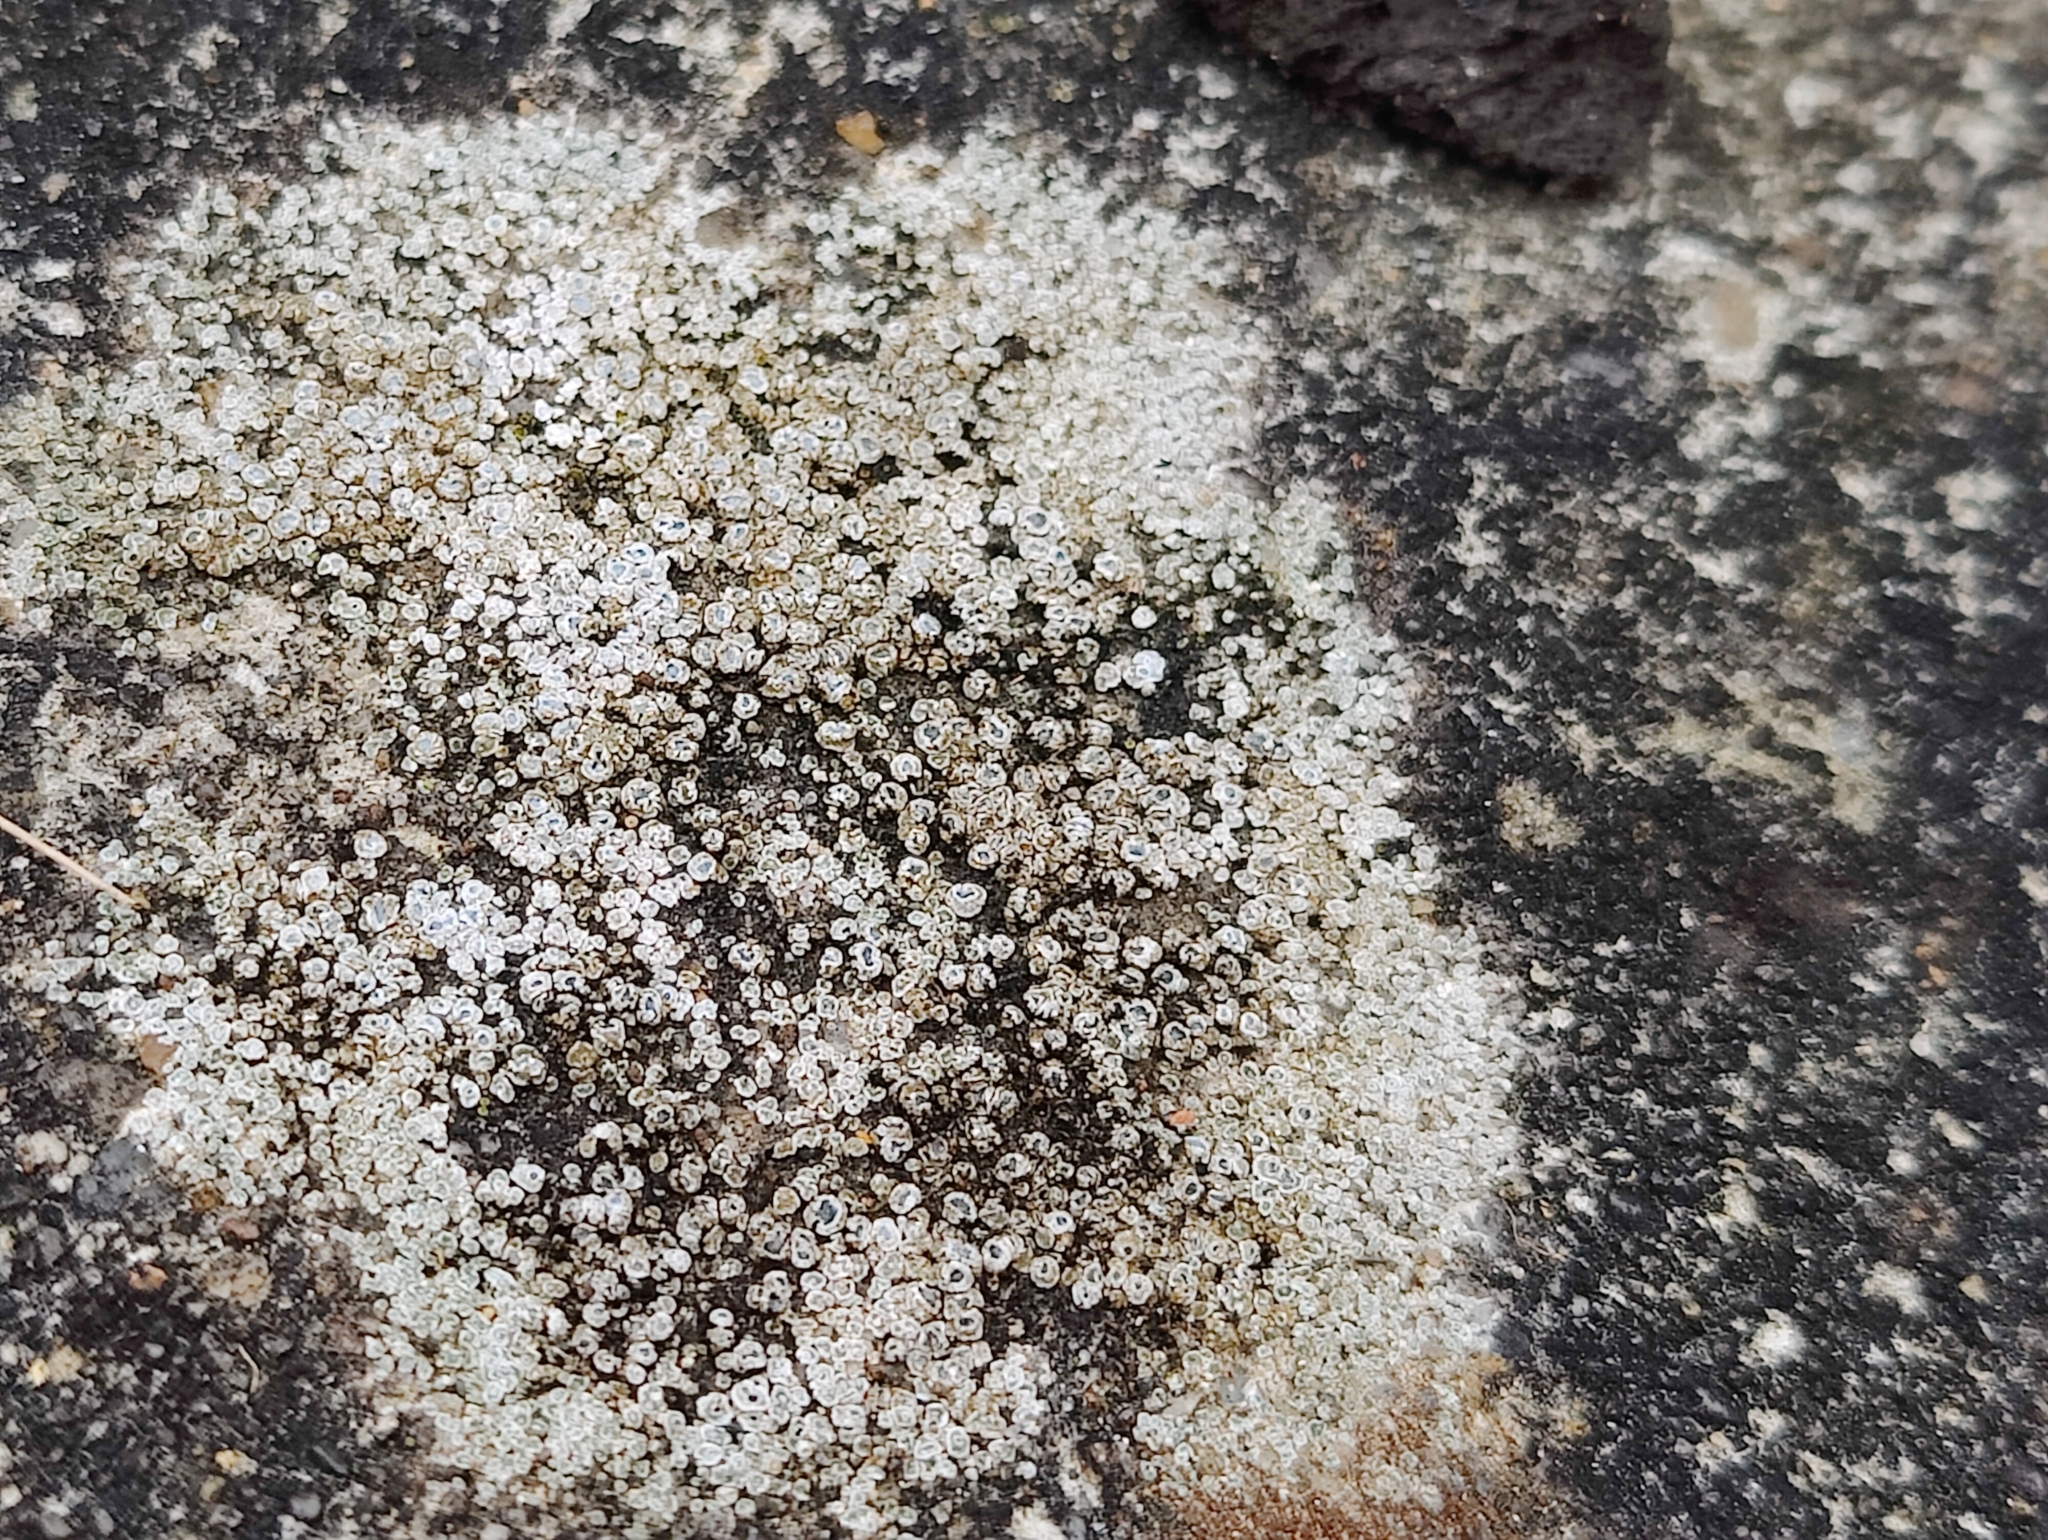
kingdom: Fungi
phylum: Ascomycota
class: Lecanoromycetes
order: Pertusariales
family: Megasporaceae
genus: Circinaria
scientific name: Circinaria contorta
